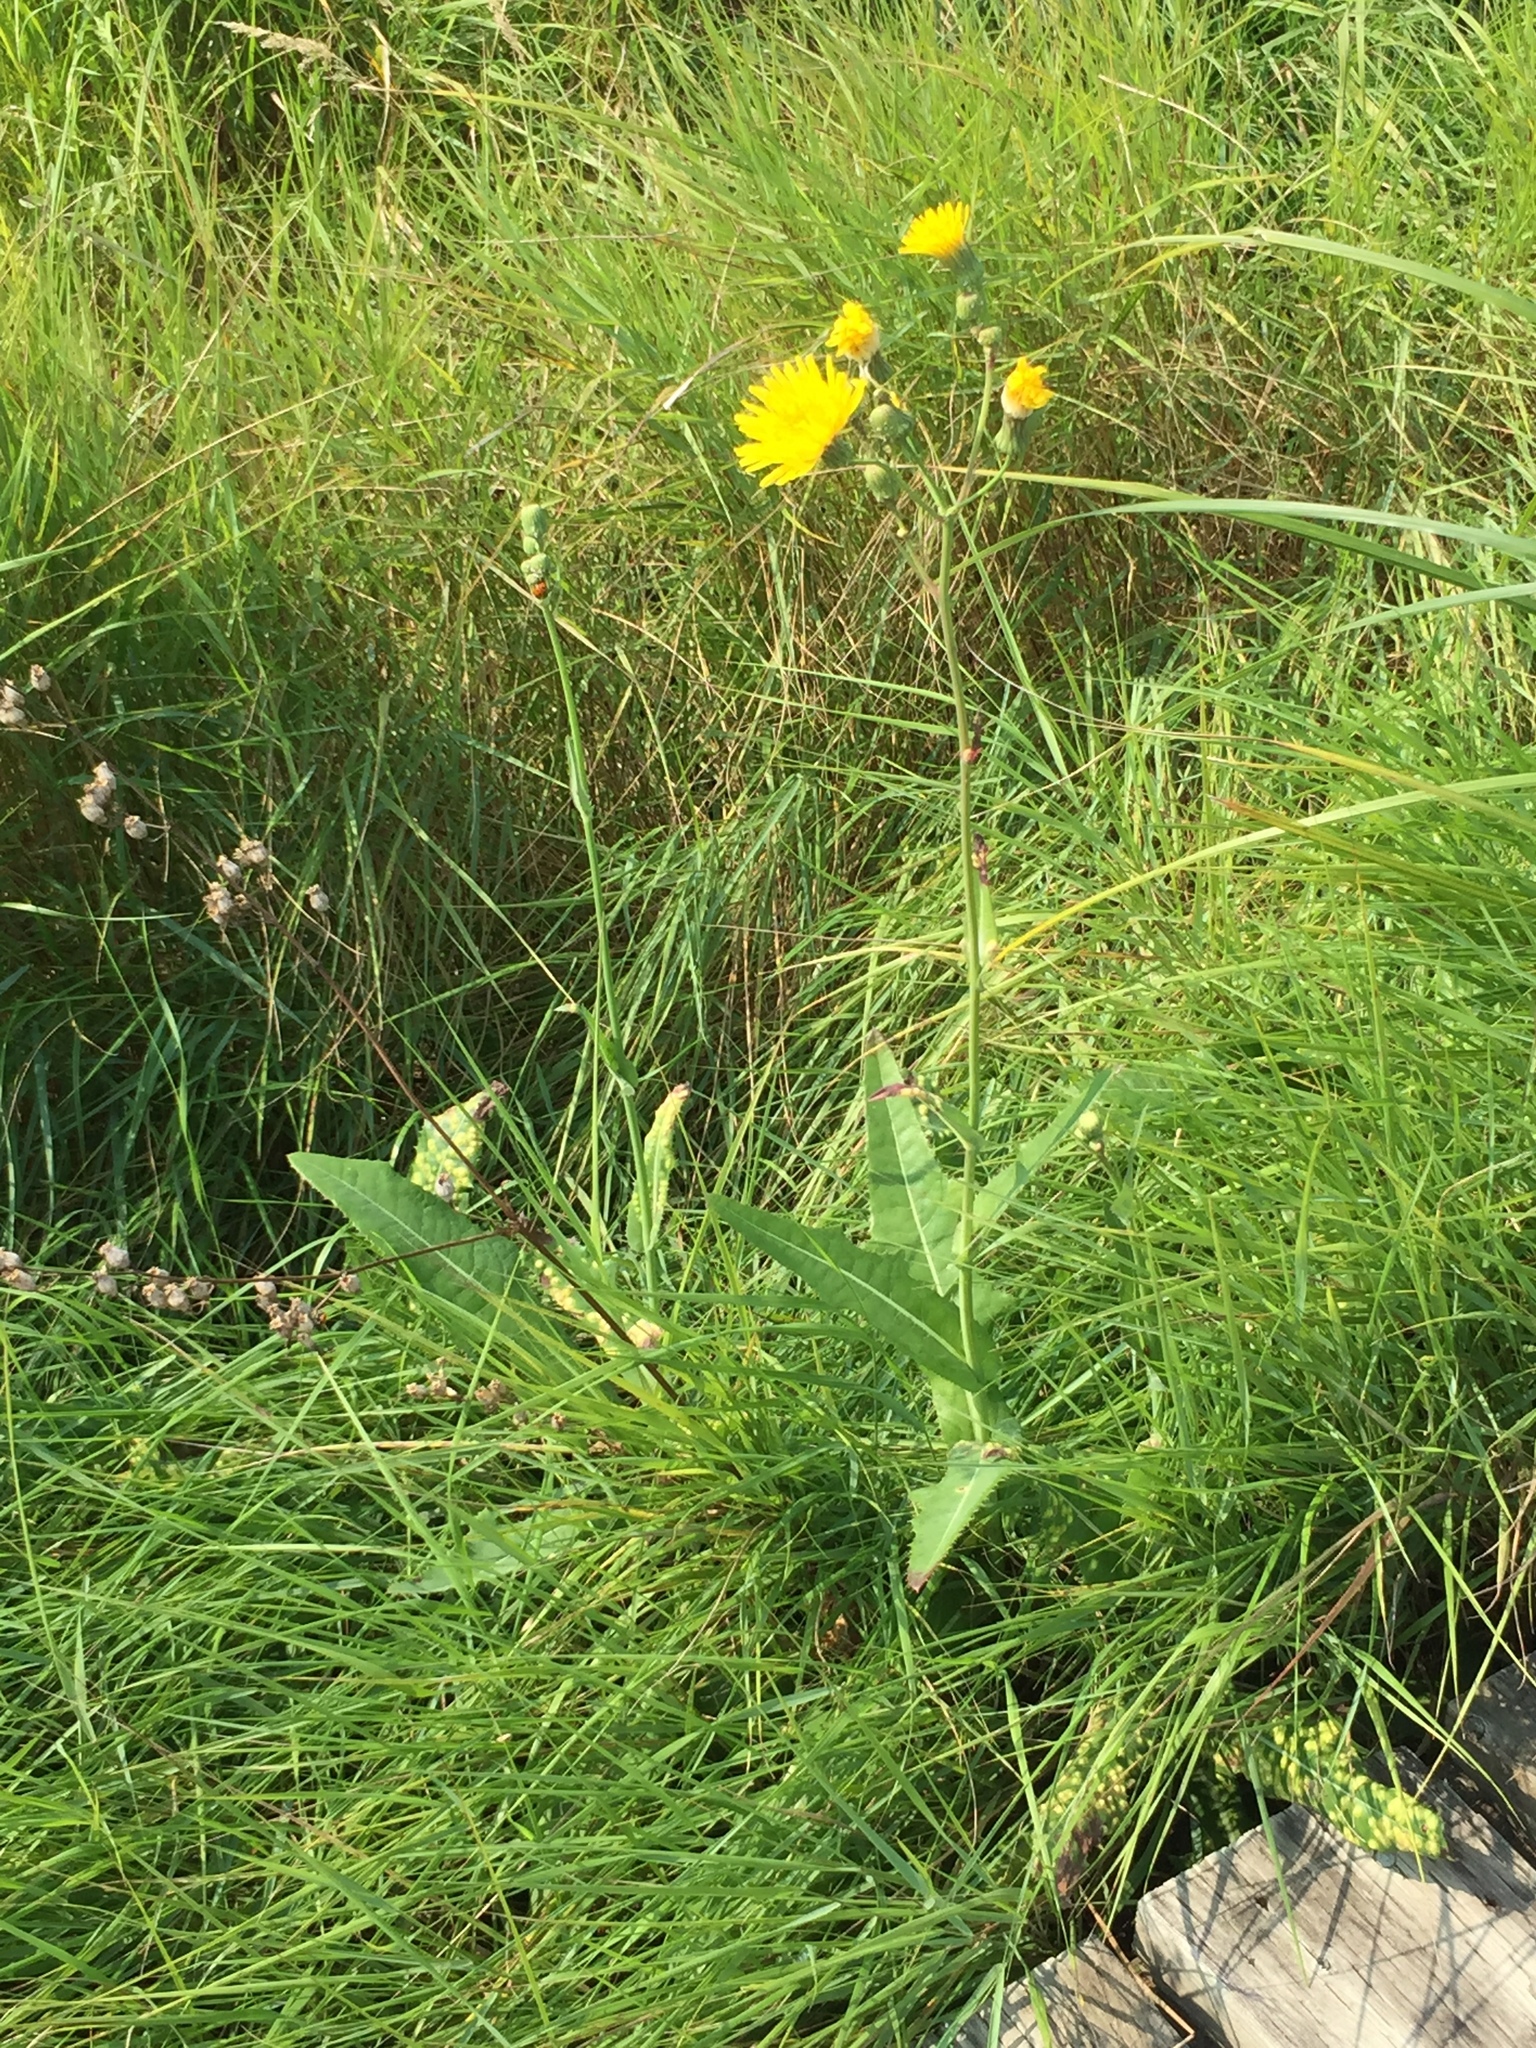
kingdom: Plantae
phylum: Tracheophyta
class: Magnoliopsida
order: Asterales
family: Asteraceae
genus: Sonchus
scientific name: Sonchus arvensis
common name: Perennial sow-thistle
